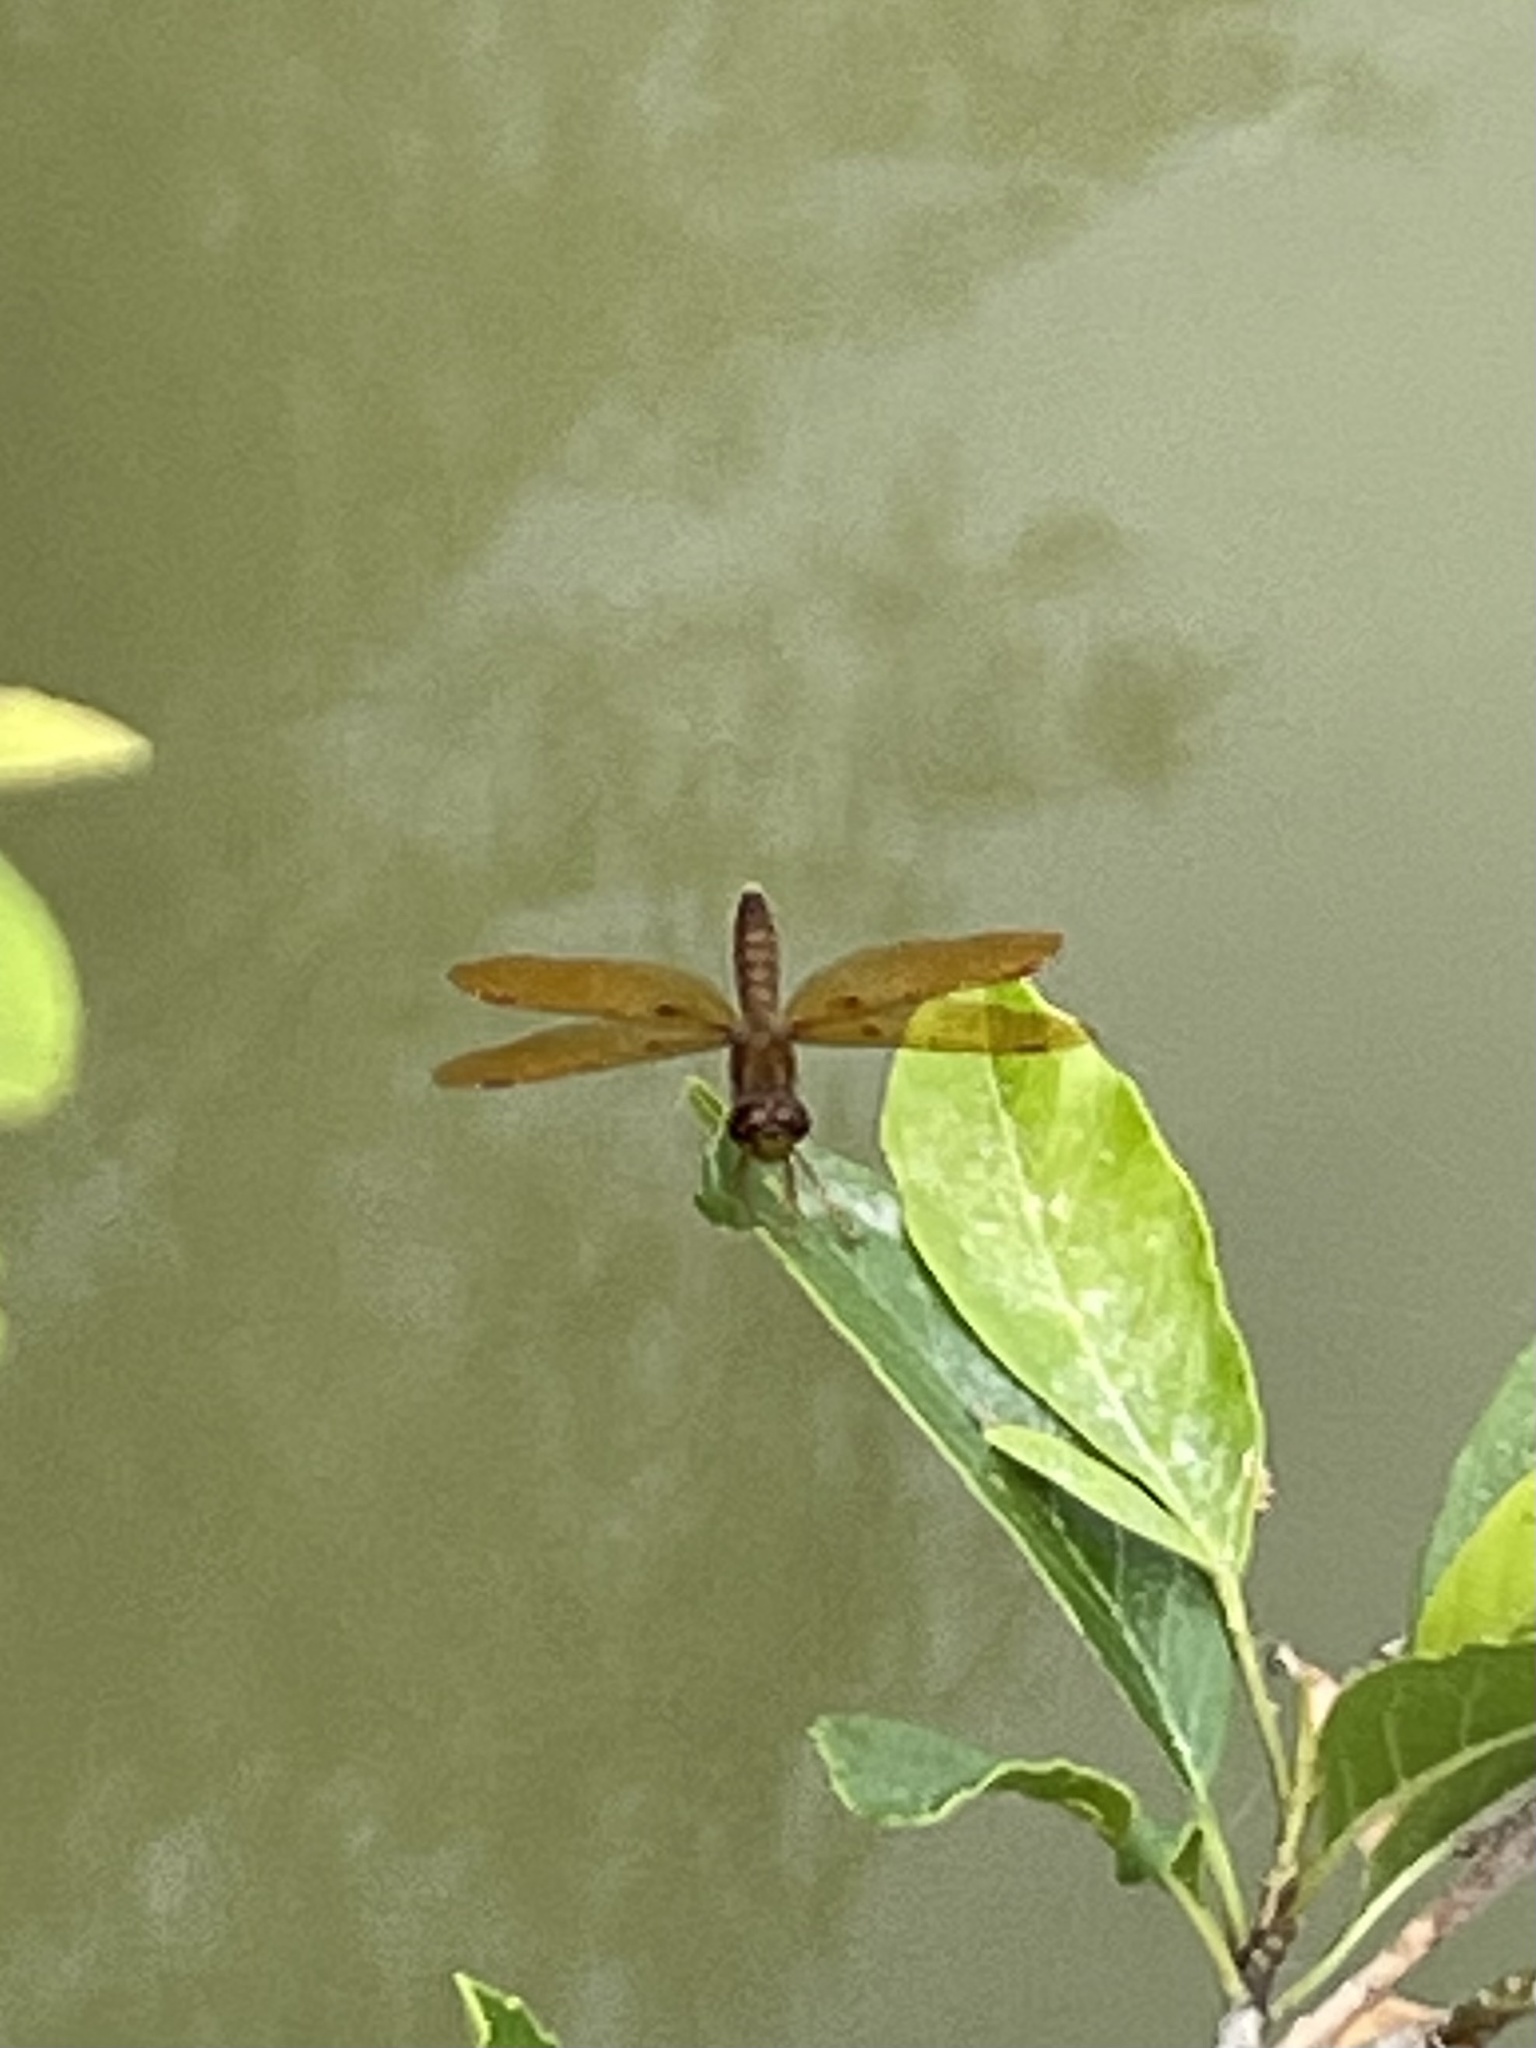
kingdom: Animalia
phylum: Arthropoda
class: Insecta
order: Odonata
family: Libellulidae
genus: Perithemis
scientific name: Perithemis tenera
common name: Eastern amberwing
